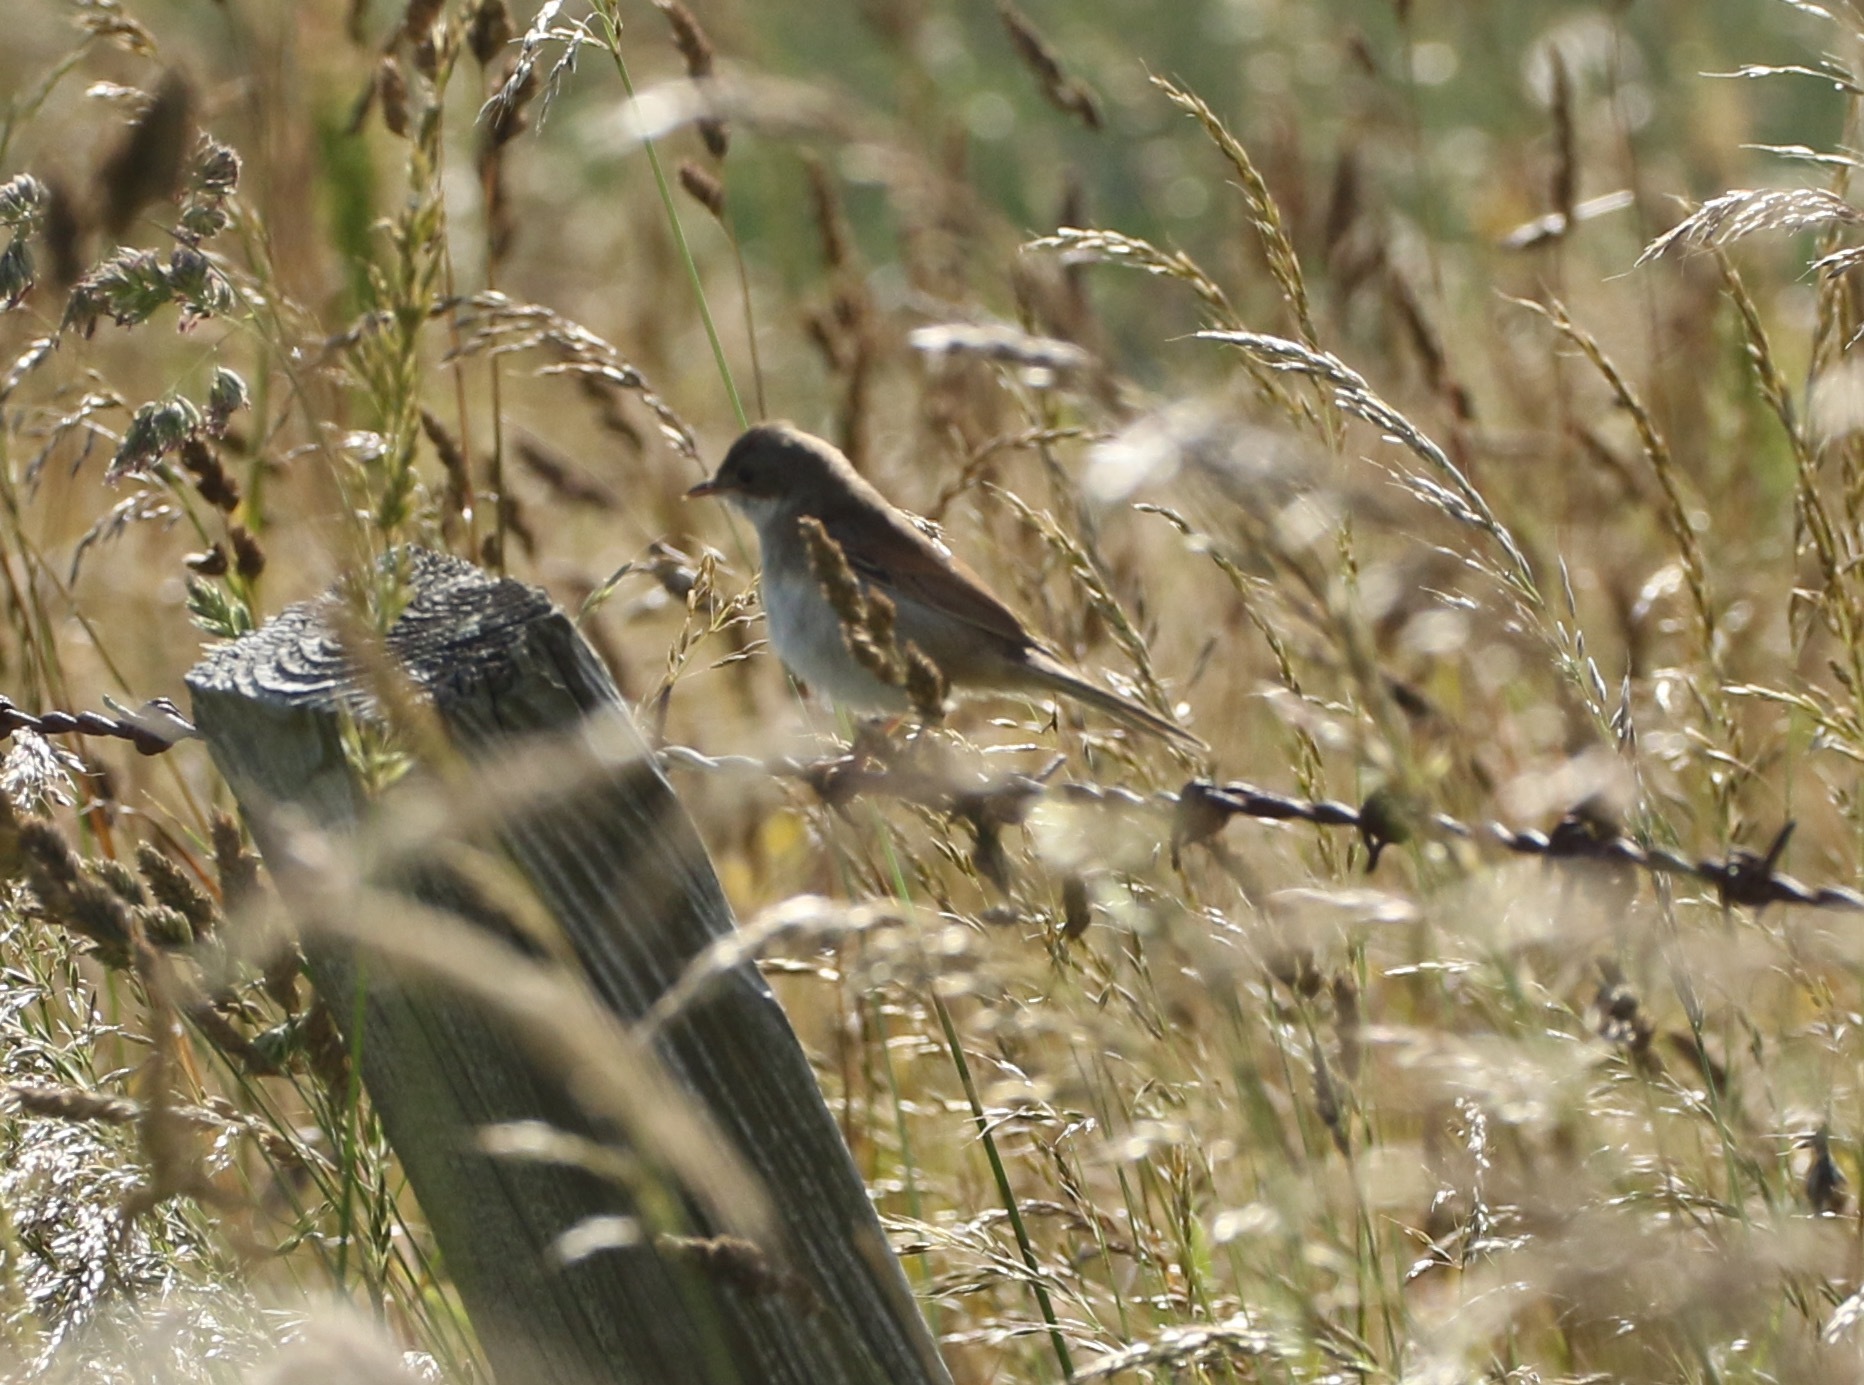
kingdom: Animalia
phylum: Chordata
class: Aves
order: Passeriformes
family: Sylviidae
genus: Sylvia
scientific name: Sylvia communis
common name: Common whitethroat
